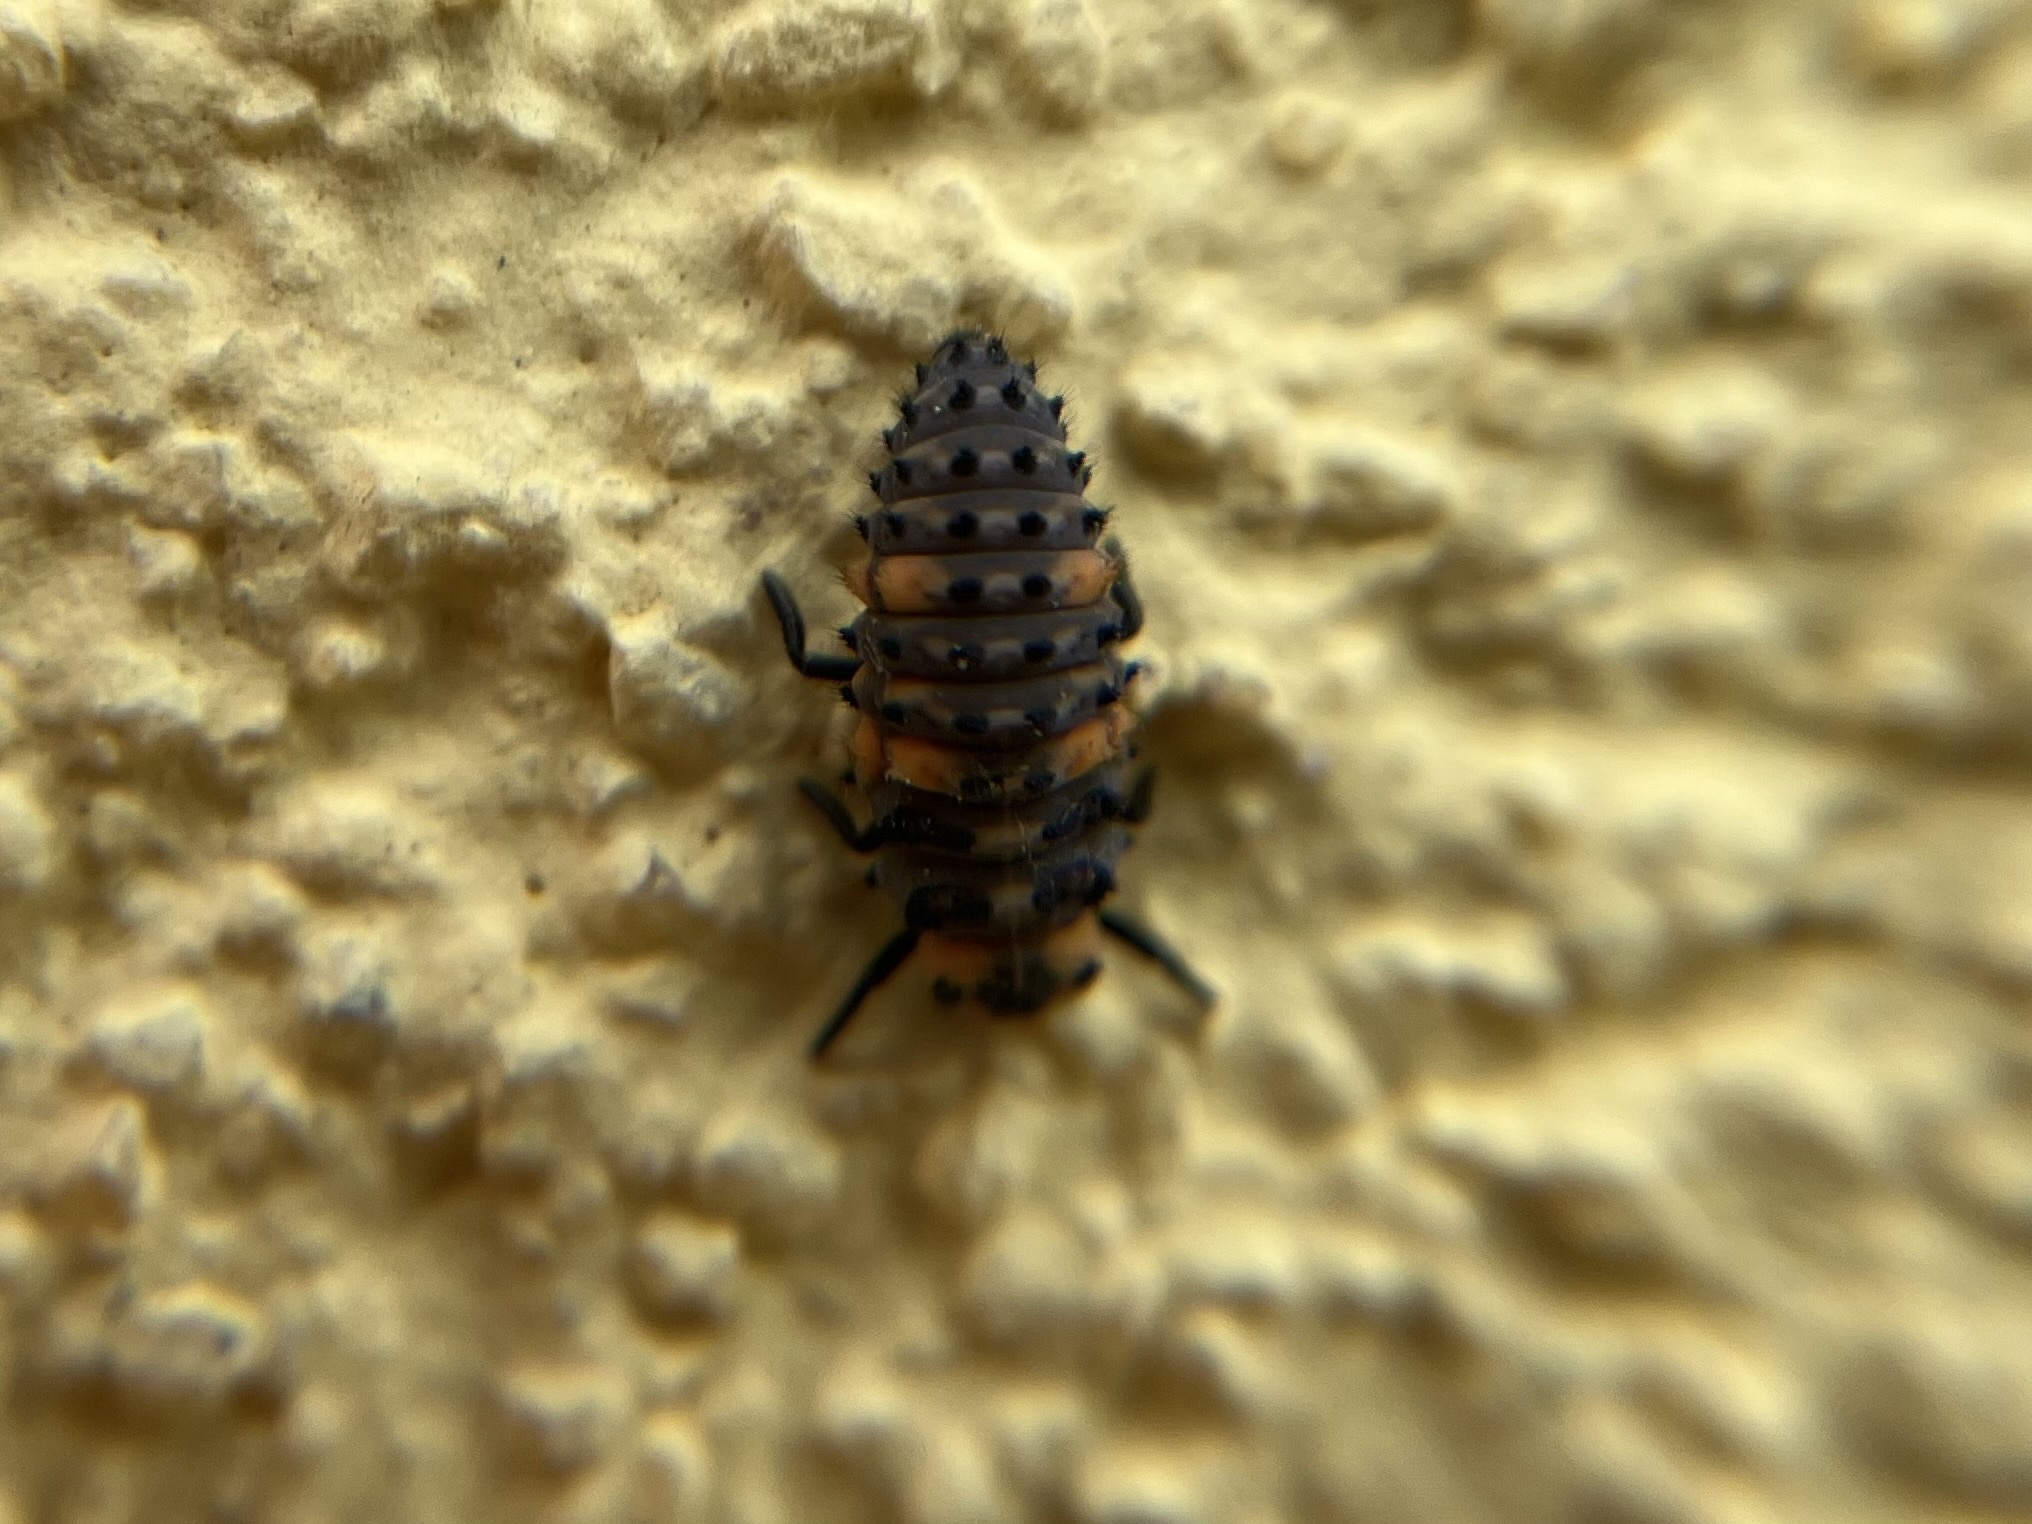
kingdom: Animalia
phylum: Arthropoda
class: Insecta
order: Coleoptera
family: Coccinellidae
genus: Coccinella
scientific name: Coccinella septempunctata
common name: Sevenspotted lady beetle
